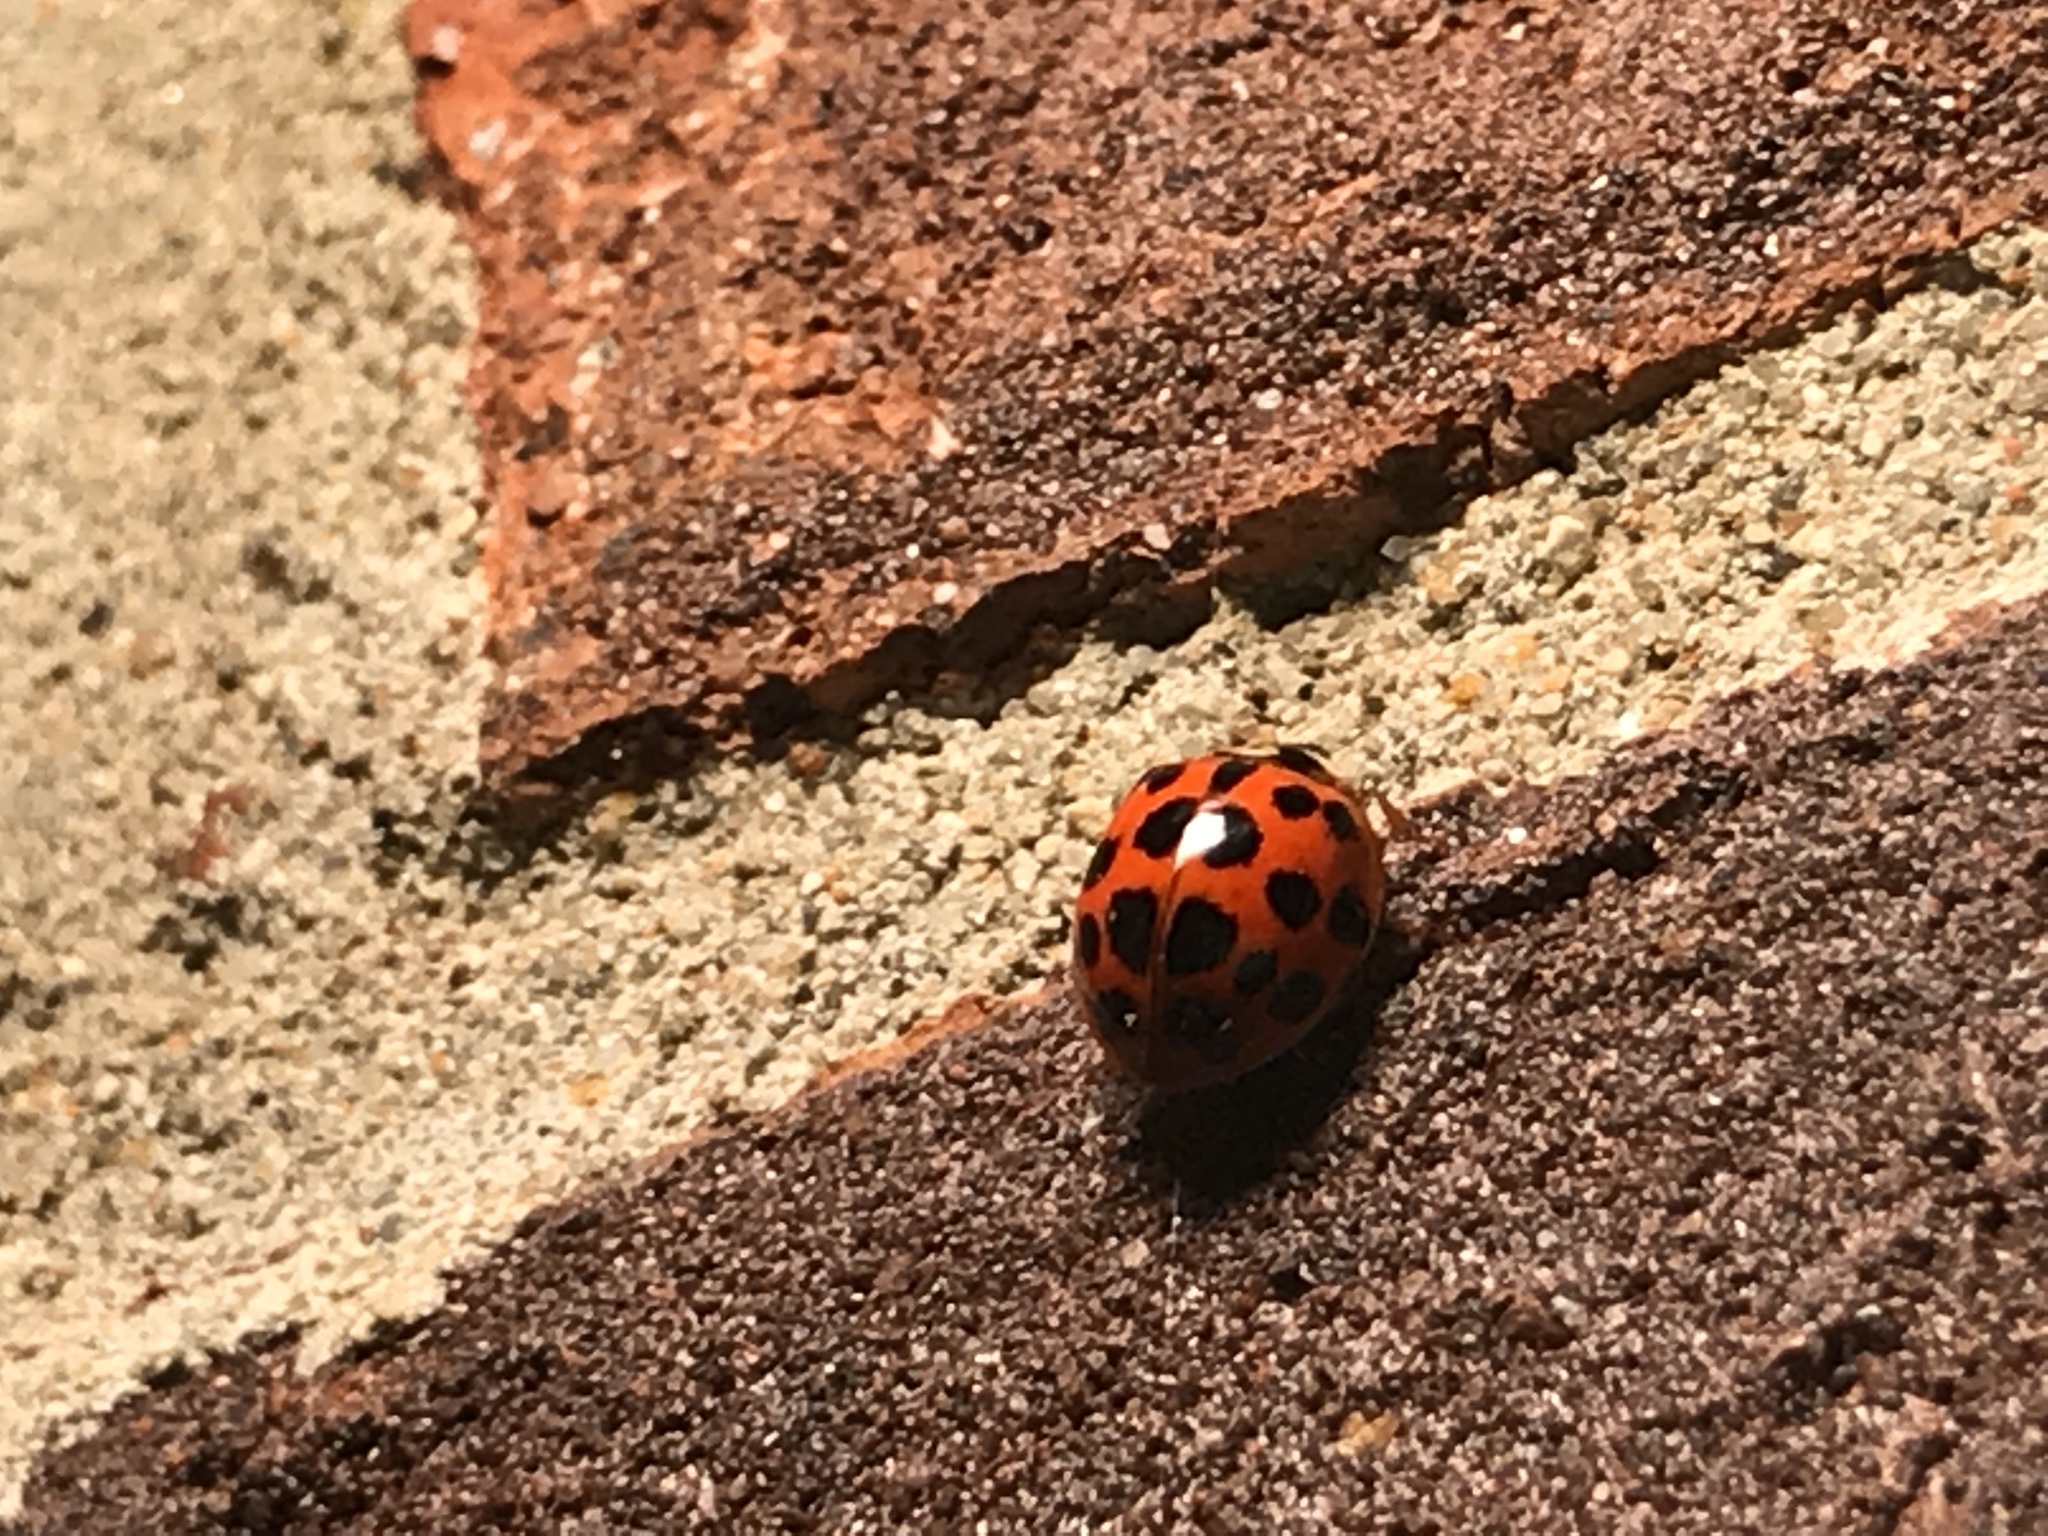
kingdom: Animalia
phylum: Arthropoda
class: Insecta
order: Coleoptera
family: Coccinellidae
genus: Harmonia
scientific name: Harmonia axyridis
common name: Harlequin ladybird
